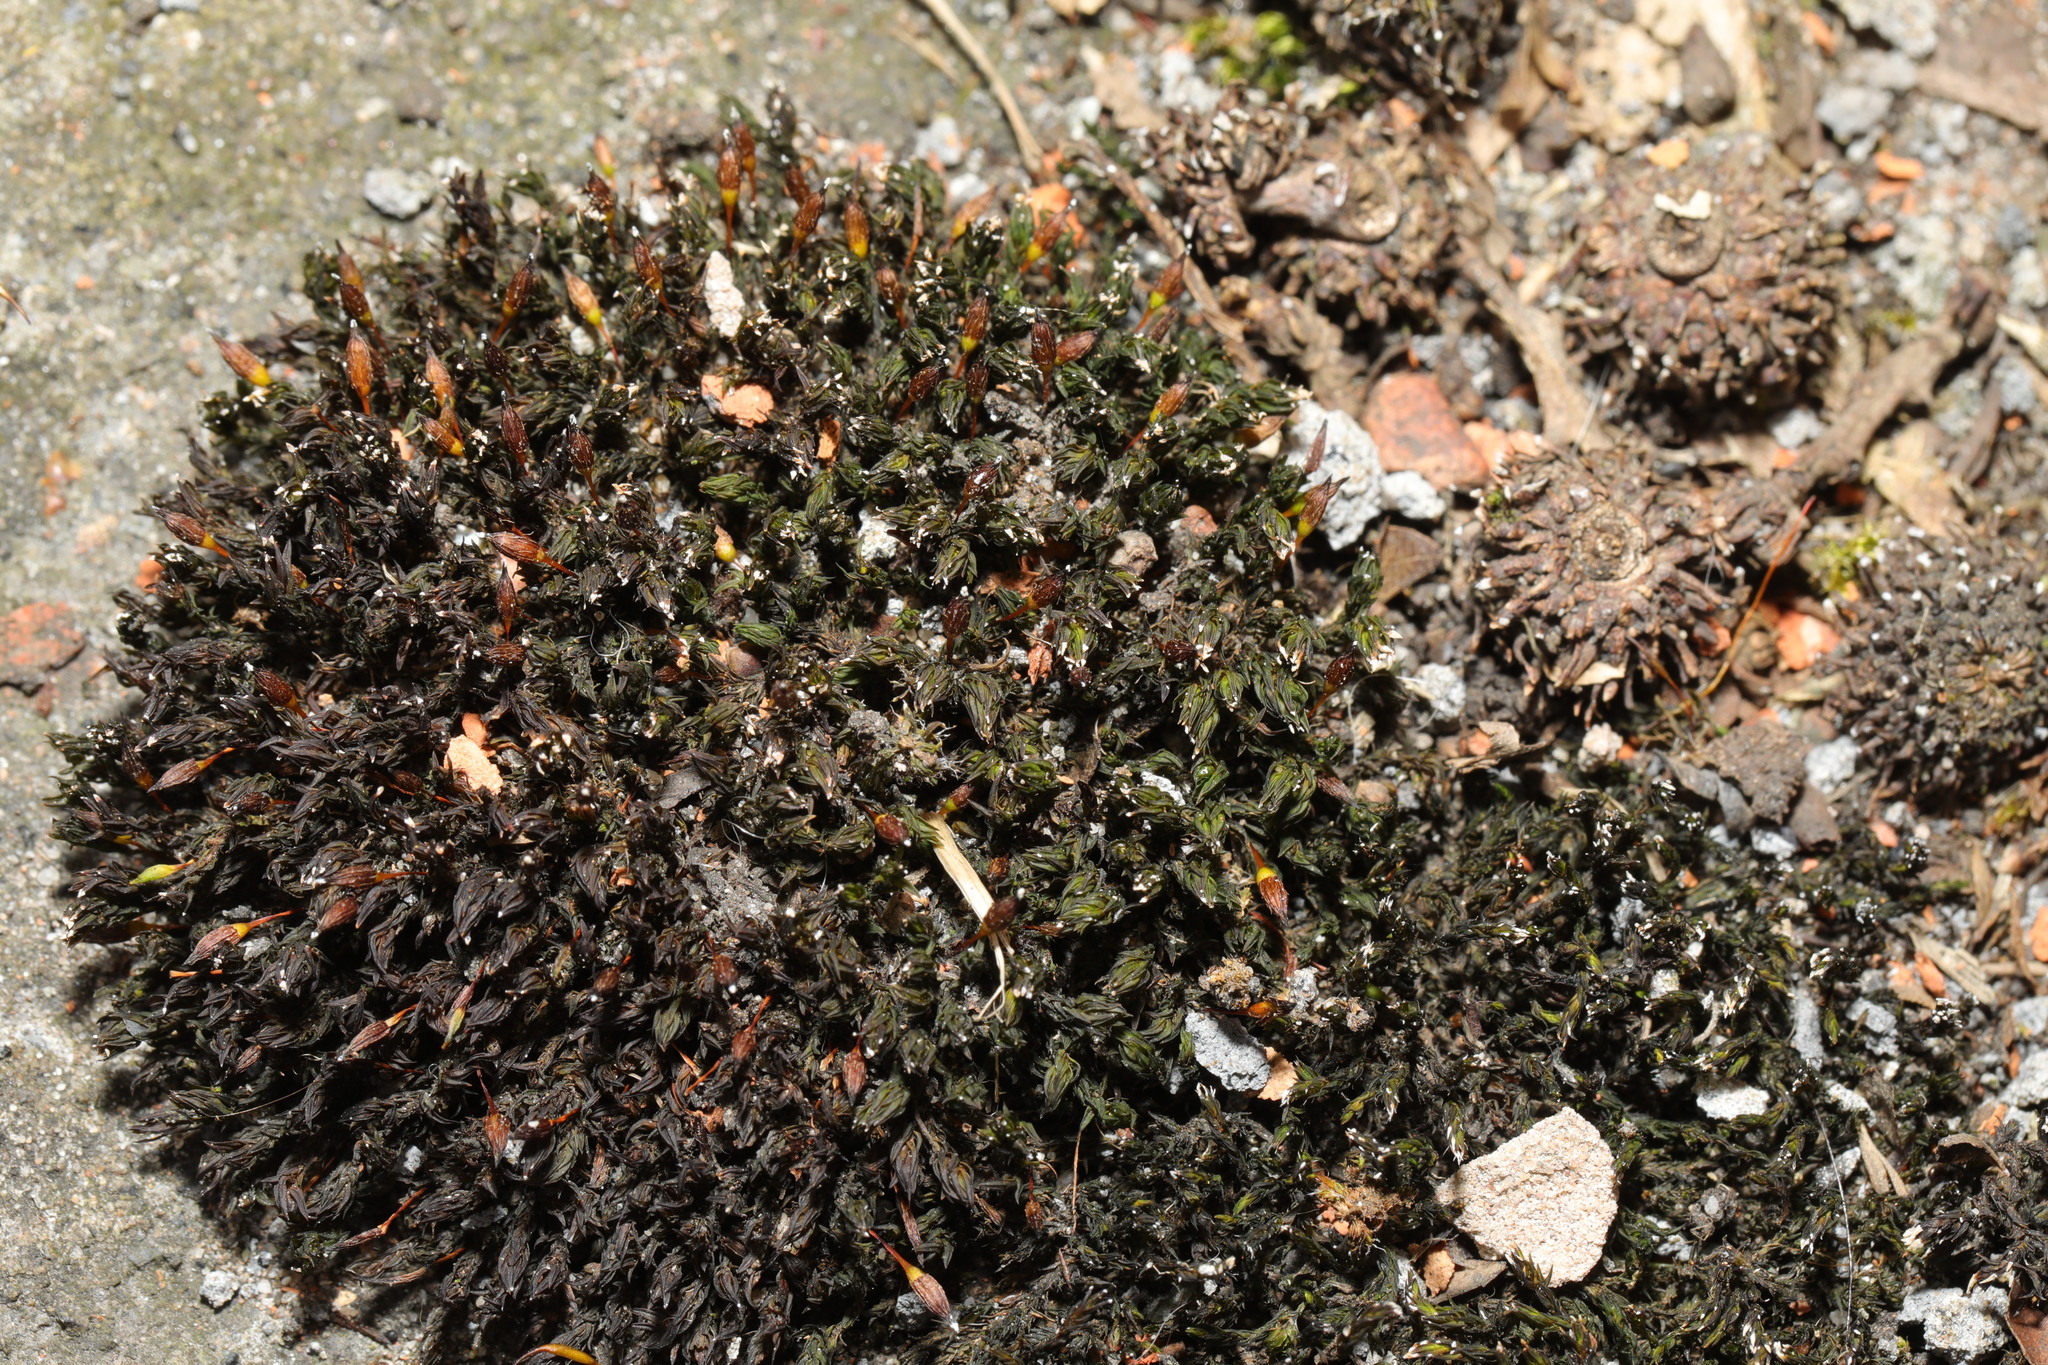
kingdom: Plantae
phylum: Bryophyta
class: Bryopsida
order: Orthotrichales
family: Orthotrichaceae
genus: Orthotrichum
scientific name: Orthotrichum anomalum
